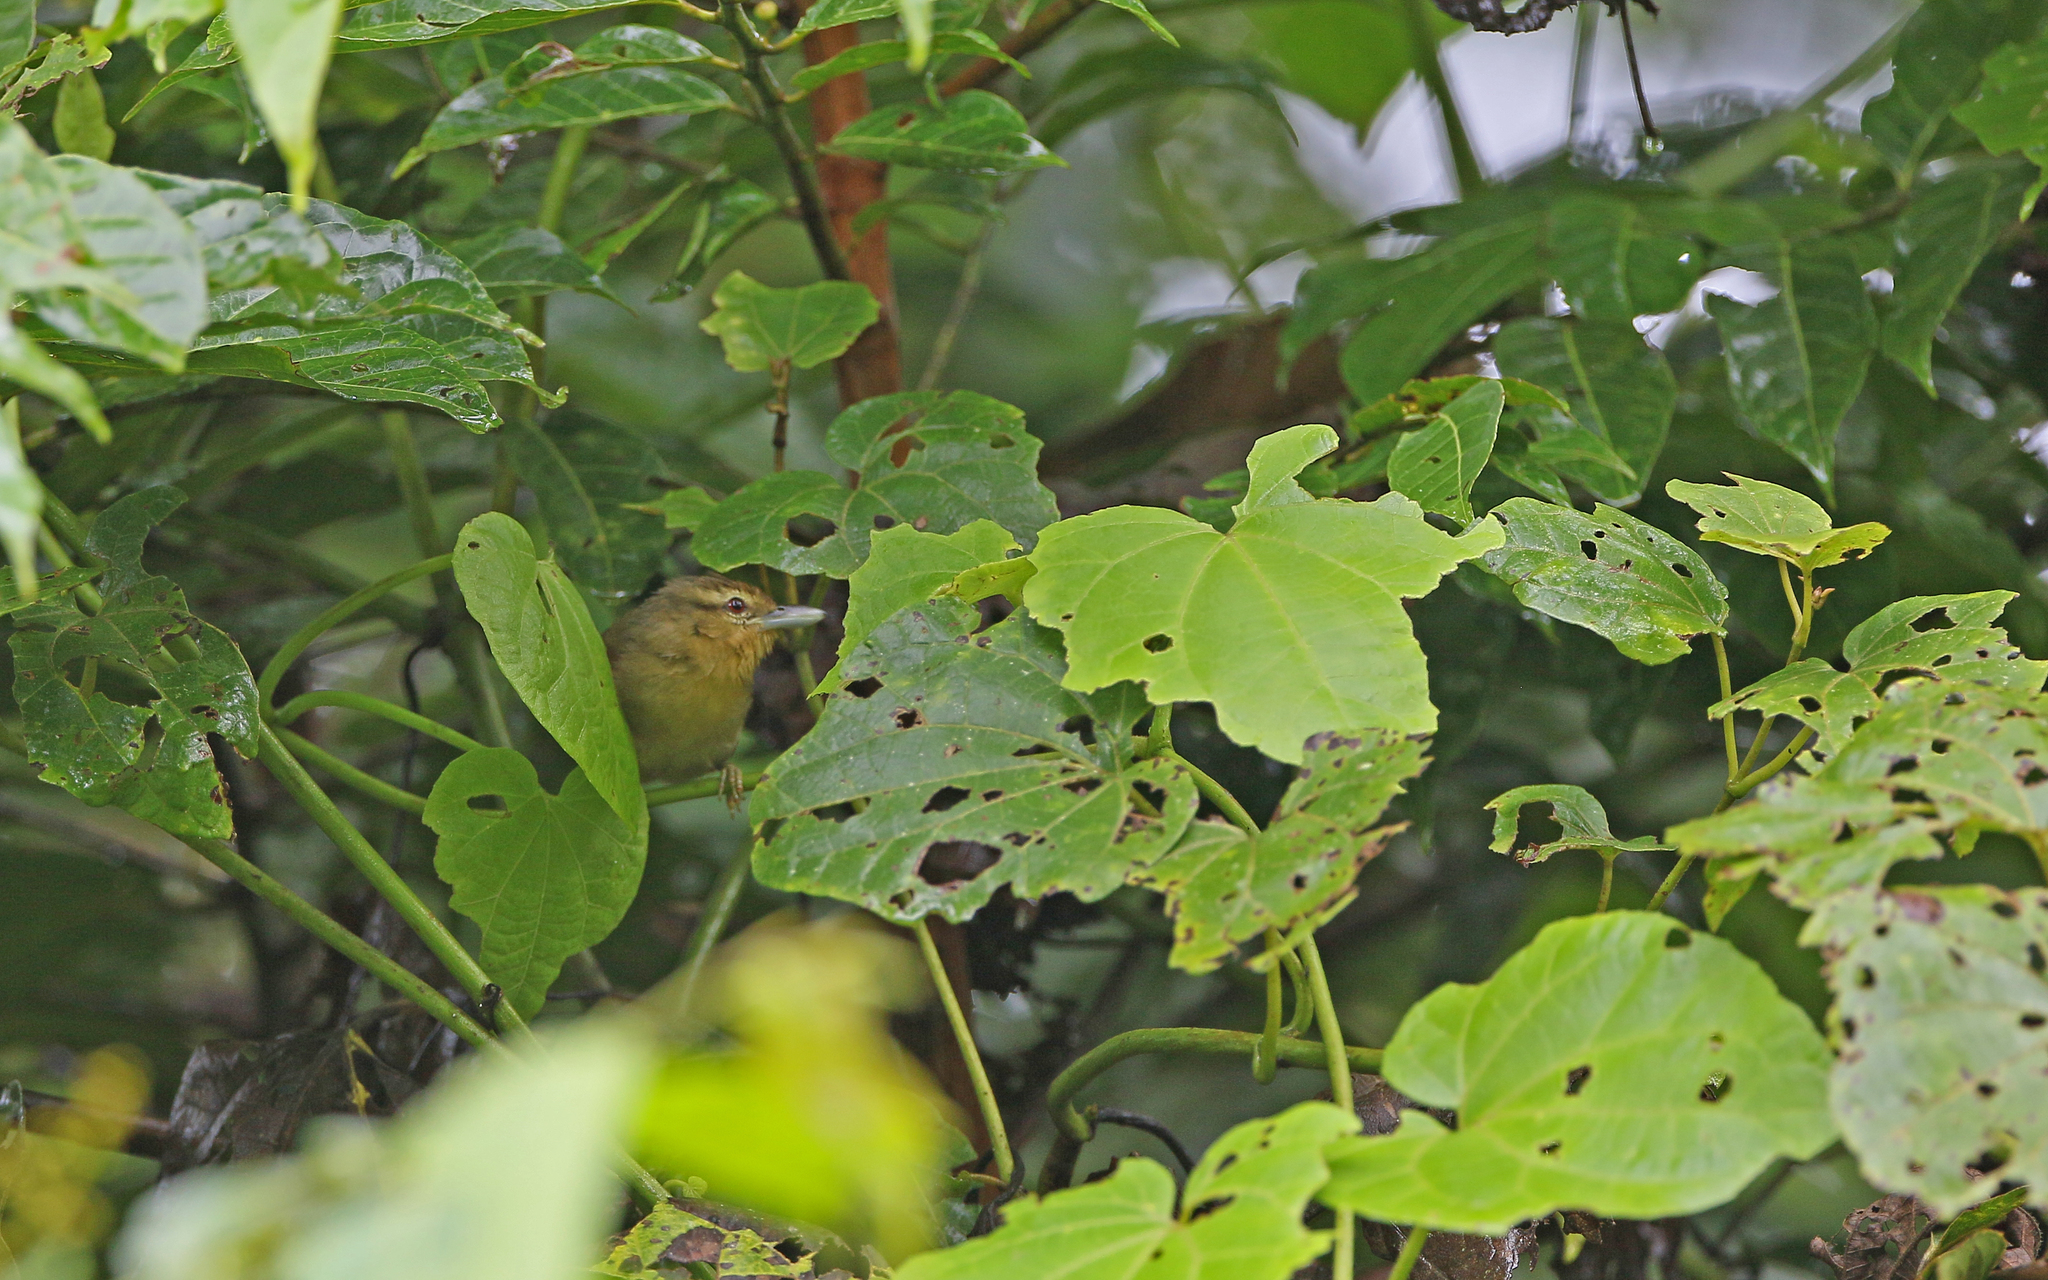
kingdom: Animalia
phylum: Chordata
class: Aves
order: Passeriformes
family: Thamnophilidae
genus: Thamnistes
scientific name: Thamnistes anabatinus
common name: Russet antshrike
